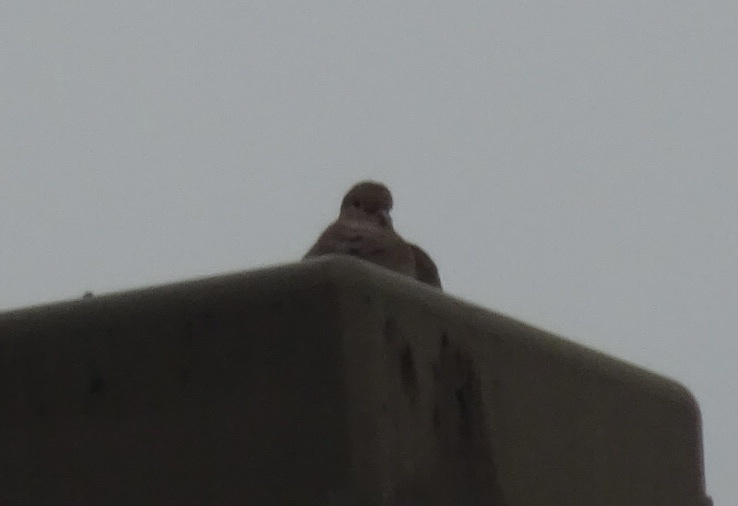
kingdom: Animalia
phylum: Chordata
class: Aves
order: Columbiformes
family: Columbidae
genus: Zenaida
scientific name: Zenaida macroura
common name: Mourning dove
